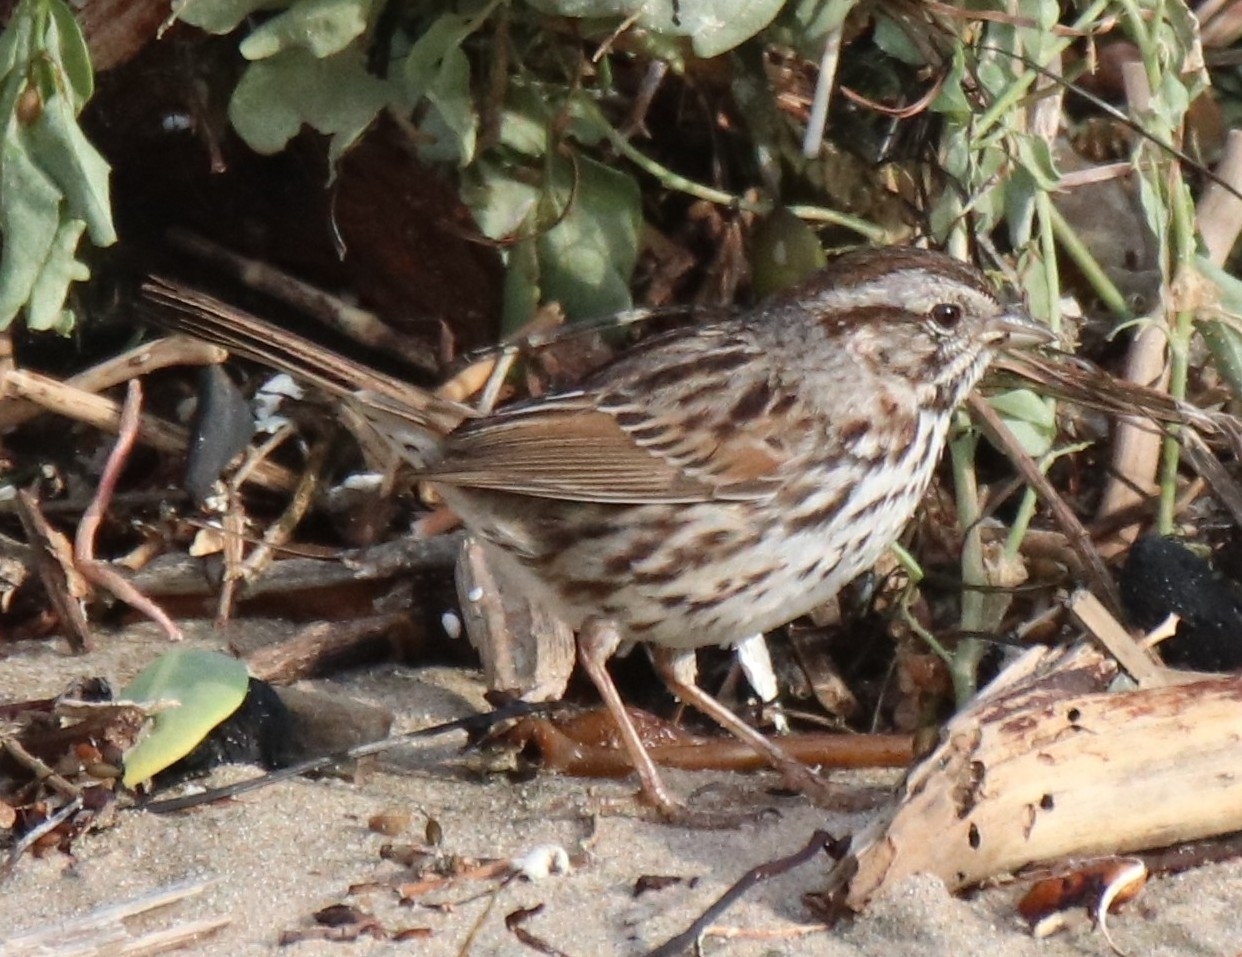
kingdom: Animalia
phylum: Chordata
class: Aves
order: Passeriformes
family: Passerellidae
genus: Melospiza
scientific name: Melospiza melodia
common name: Song sparrow
